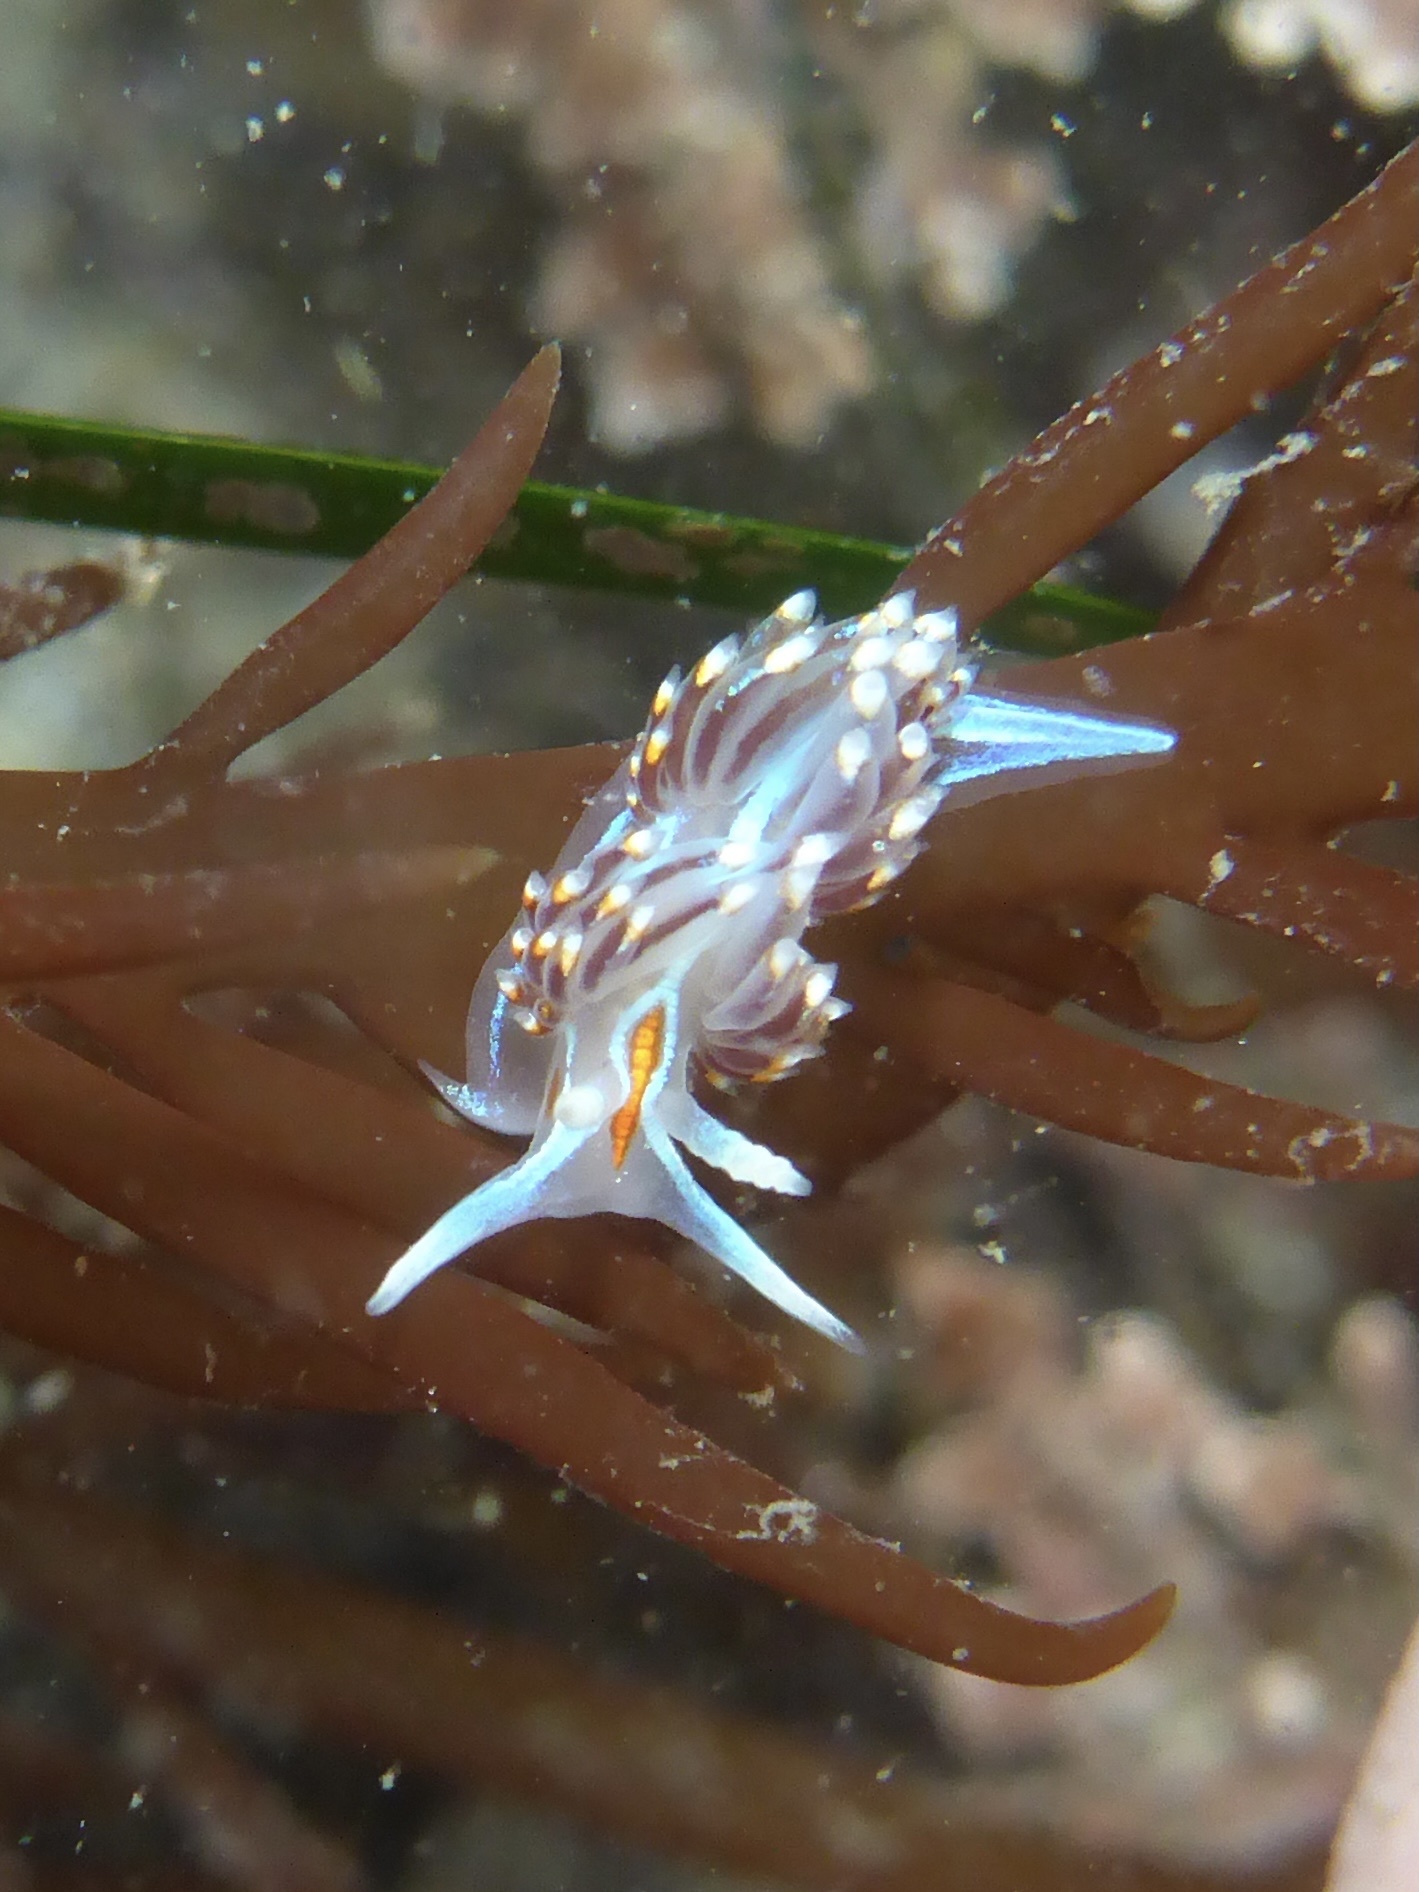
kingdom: Animalia
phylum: Mollusca
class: Gastropoda
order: Nudibranchia
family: Myrrhinidae
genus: Hermissenda
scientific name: Hermissenda opalescens
